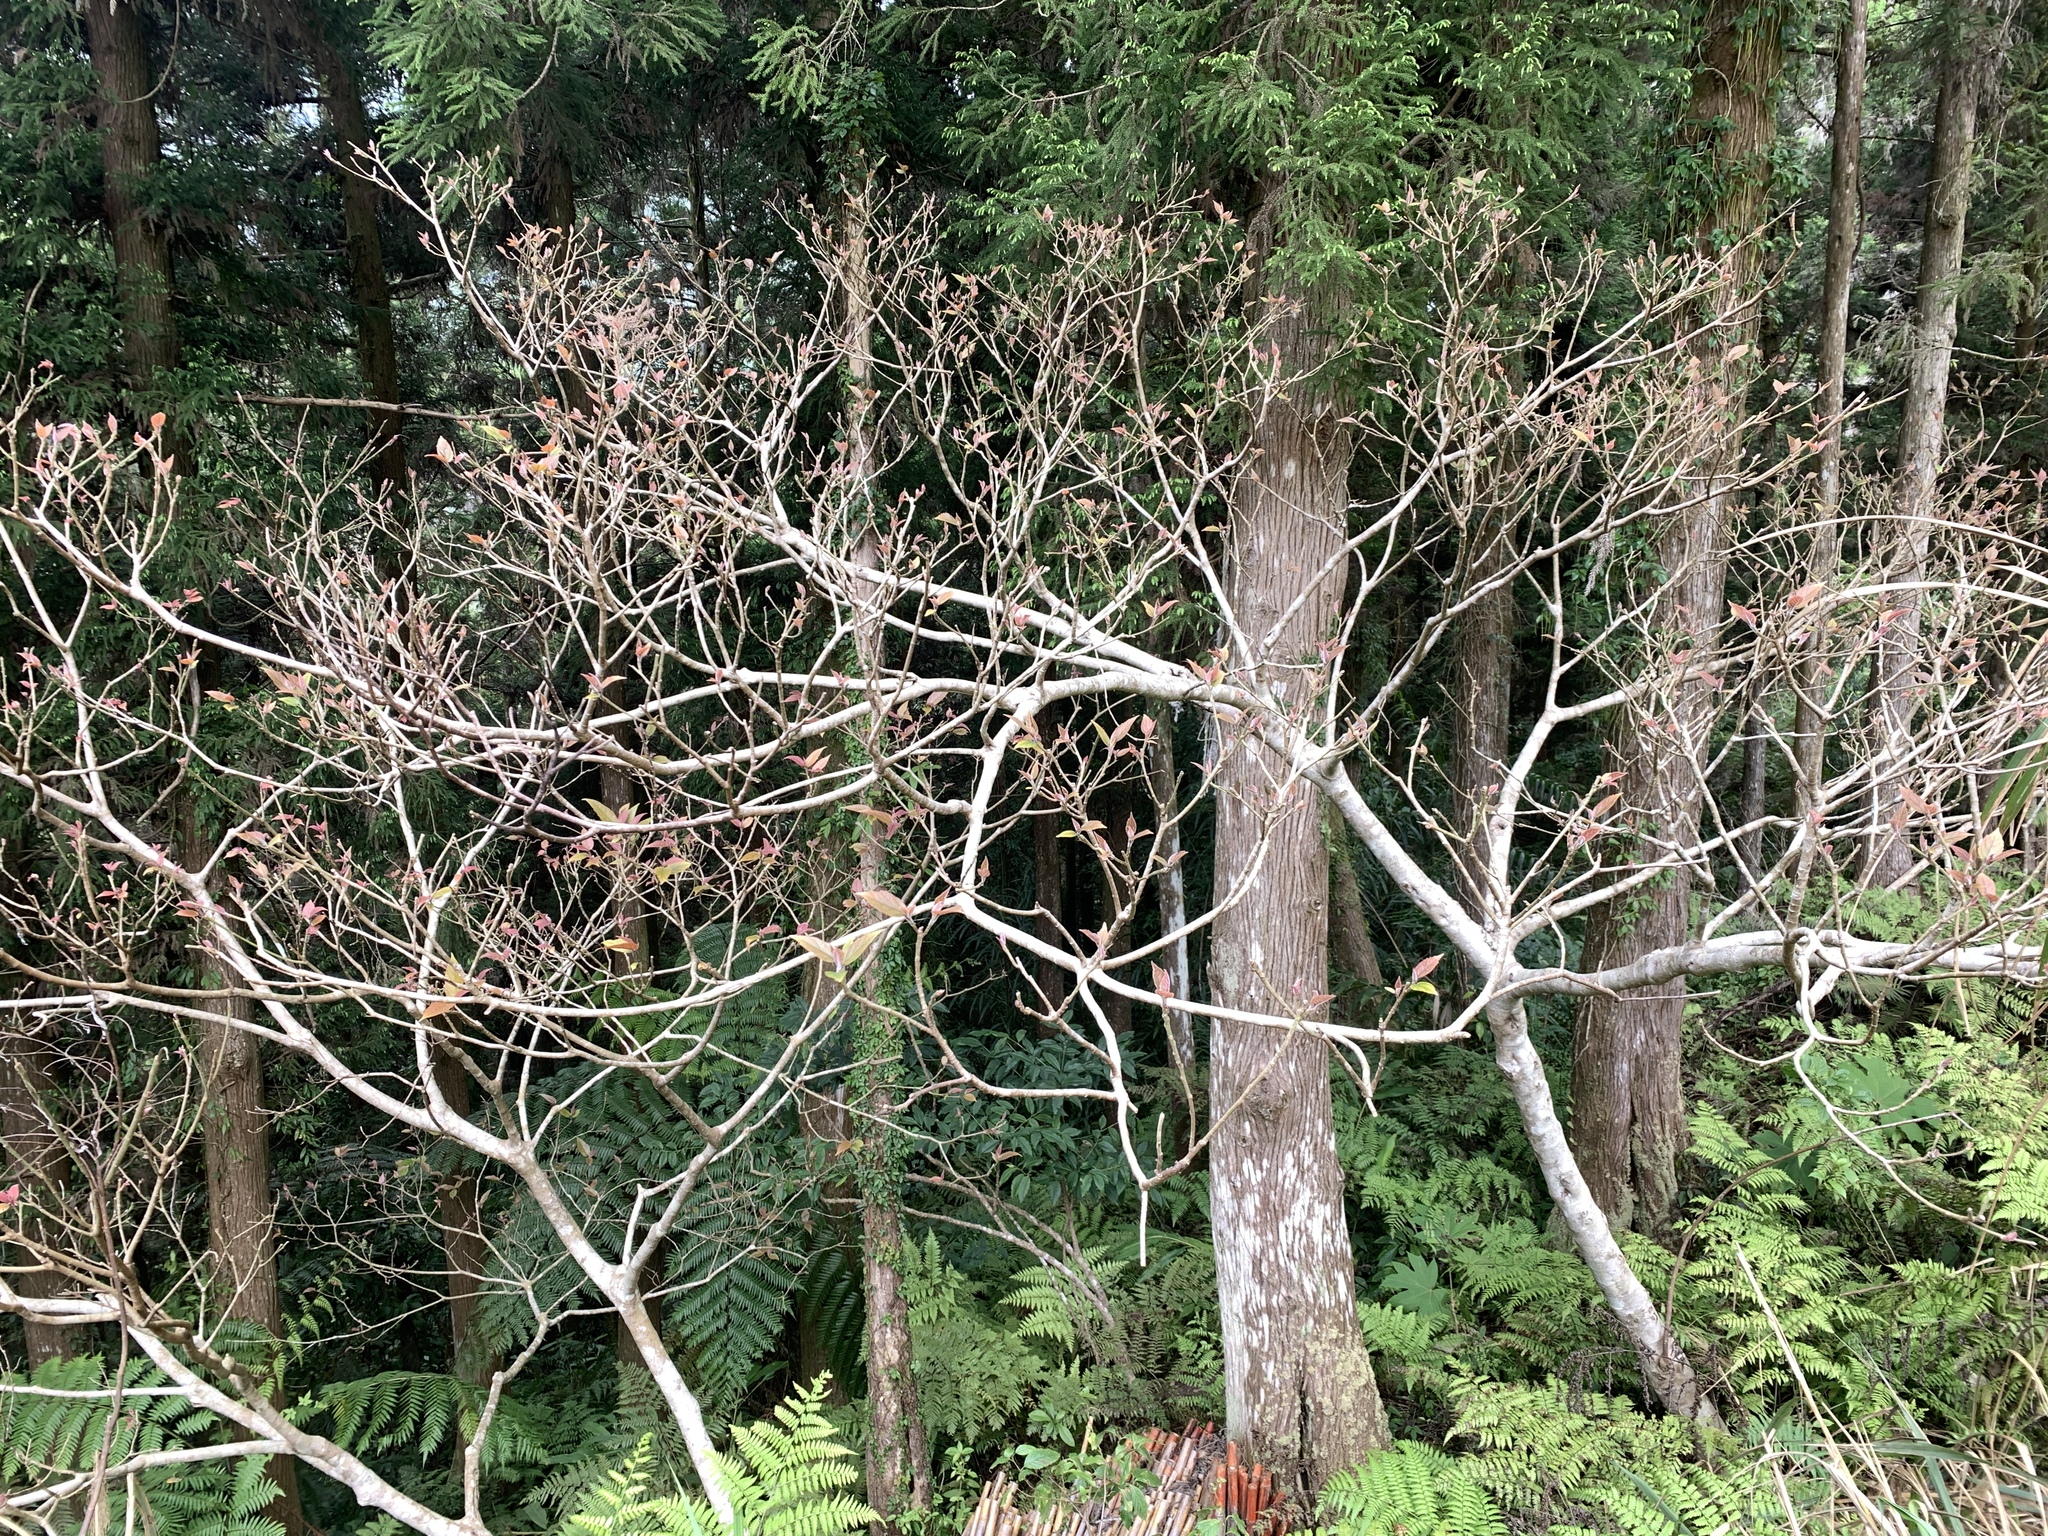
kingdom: Plantae
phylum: Tracheophyta
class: Magnoliopsida
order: Rosales
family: Moraceae
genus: Ficus
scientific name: Ficus erecta
